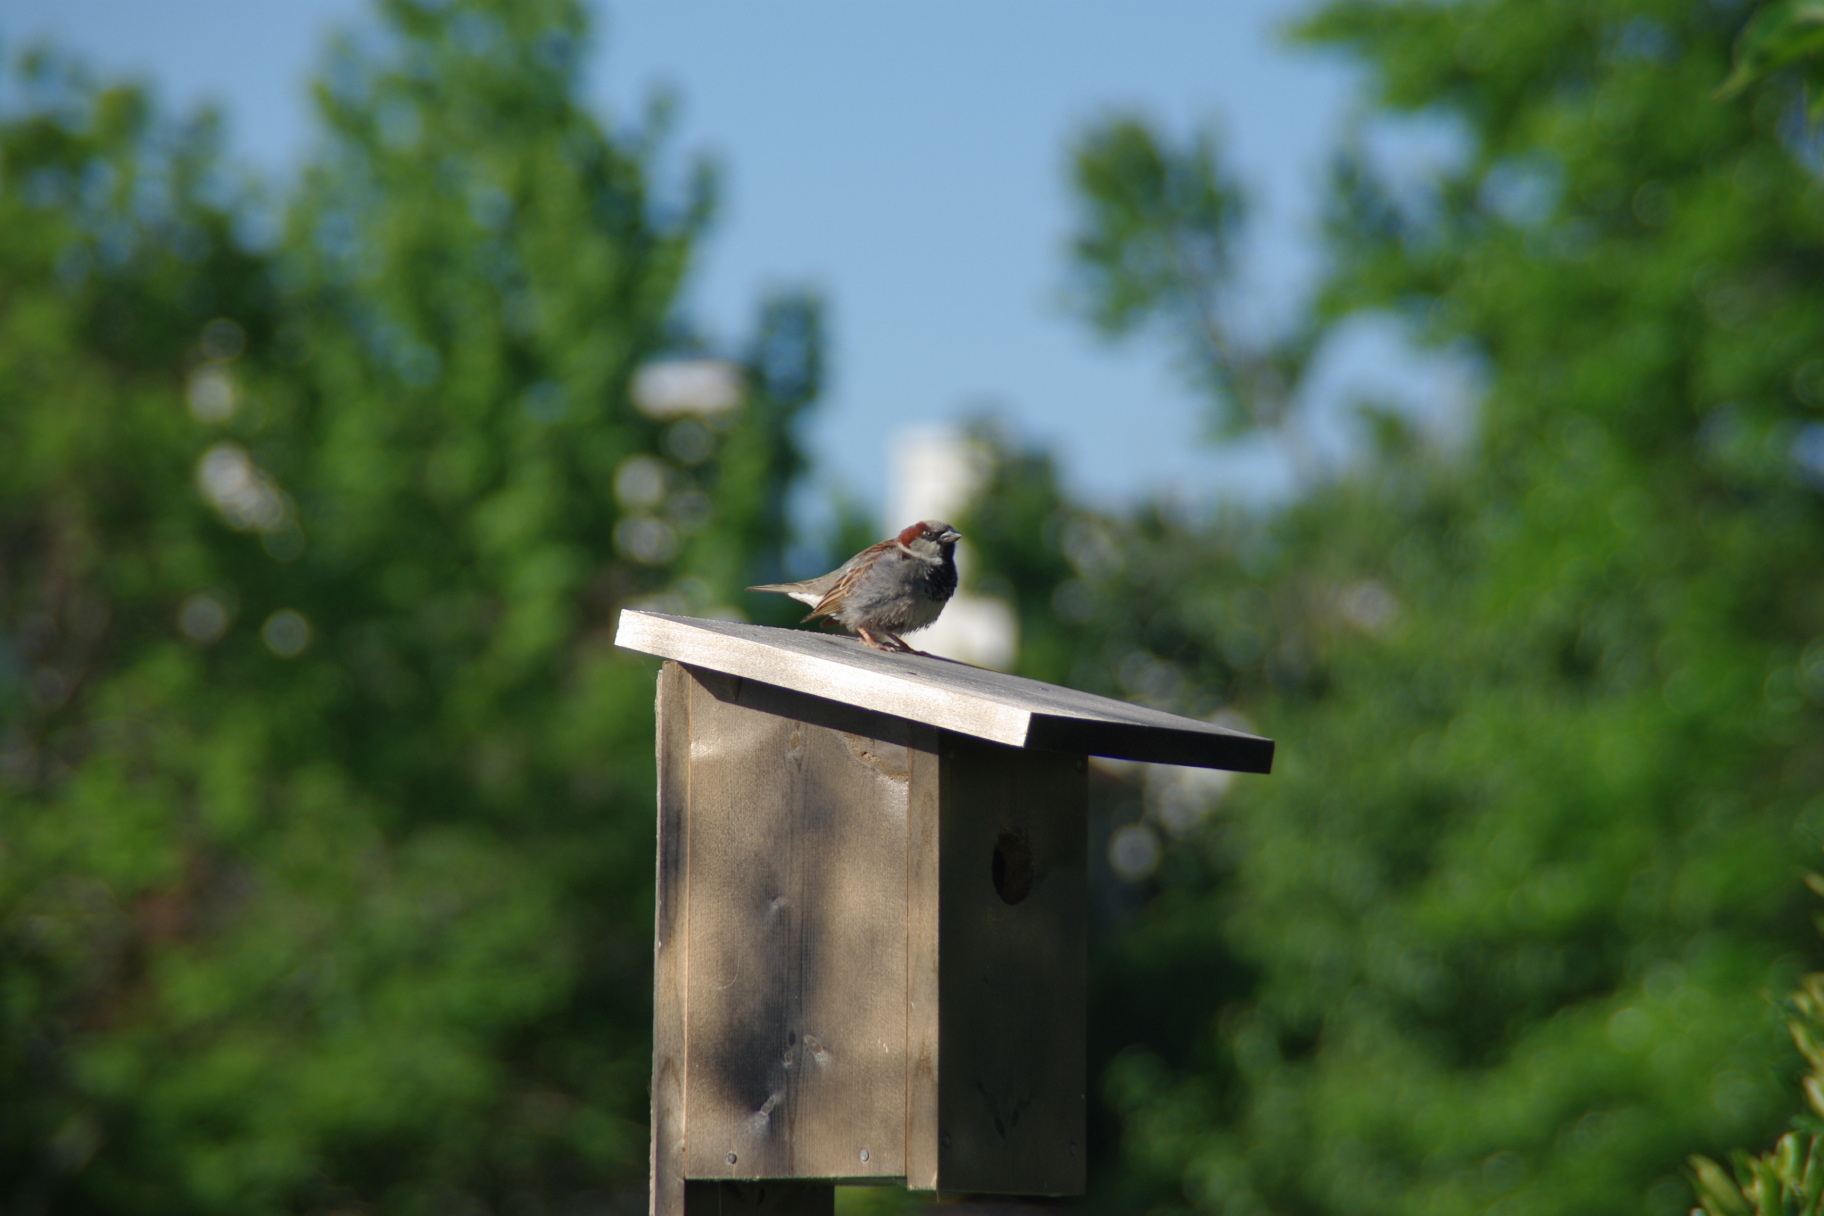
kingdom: Animalia
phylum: Chordata
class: Aves
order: Passeriformes
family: Passeridae
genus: Passer
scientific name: Passer domesticus
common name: House sparrow
